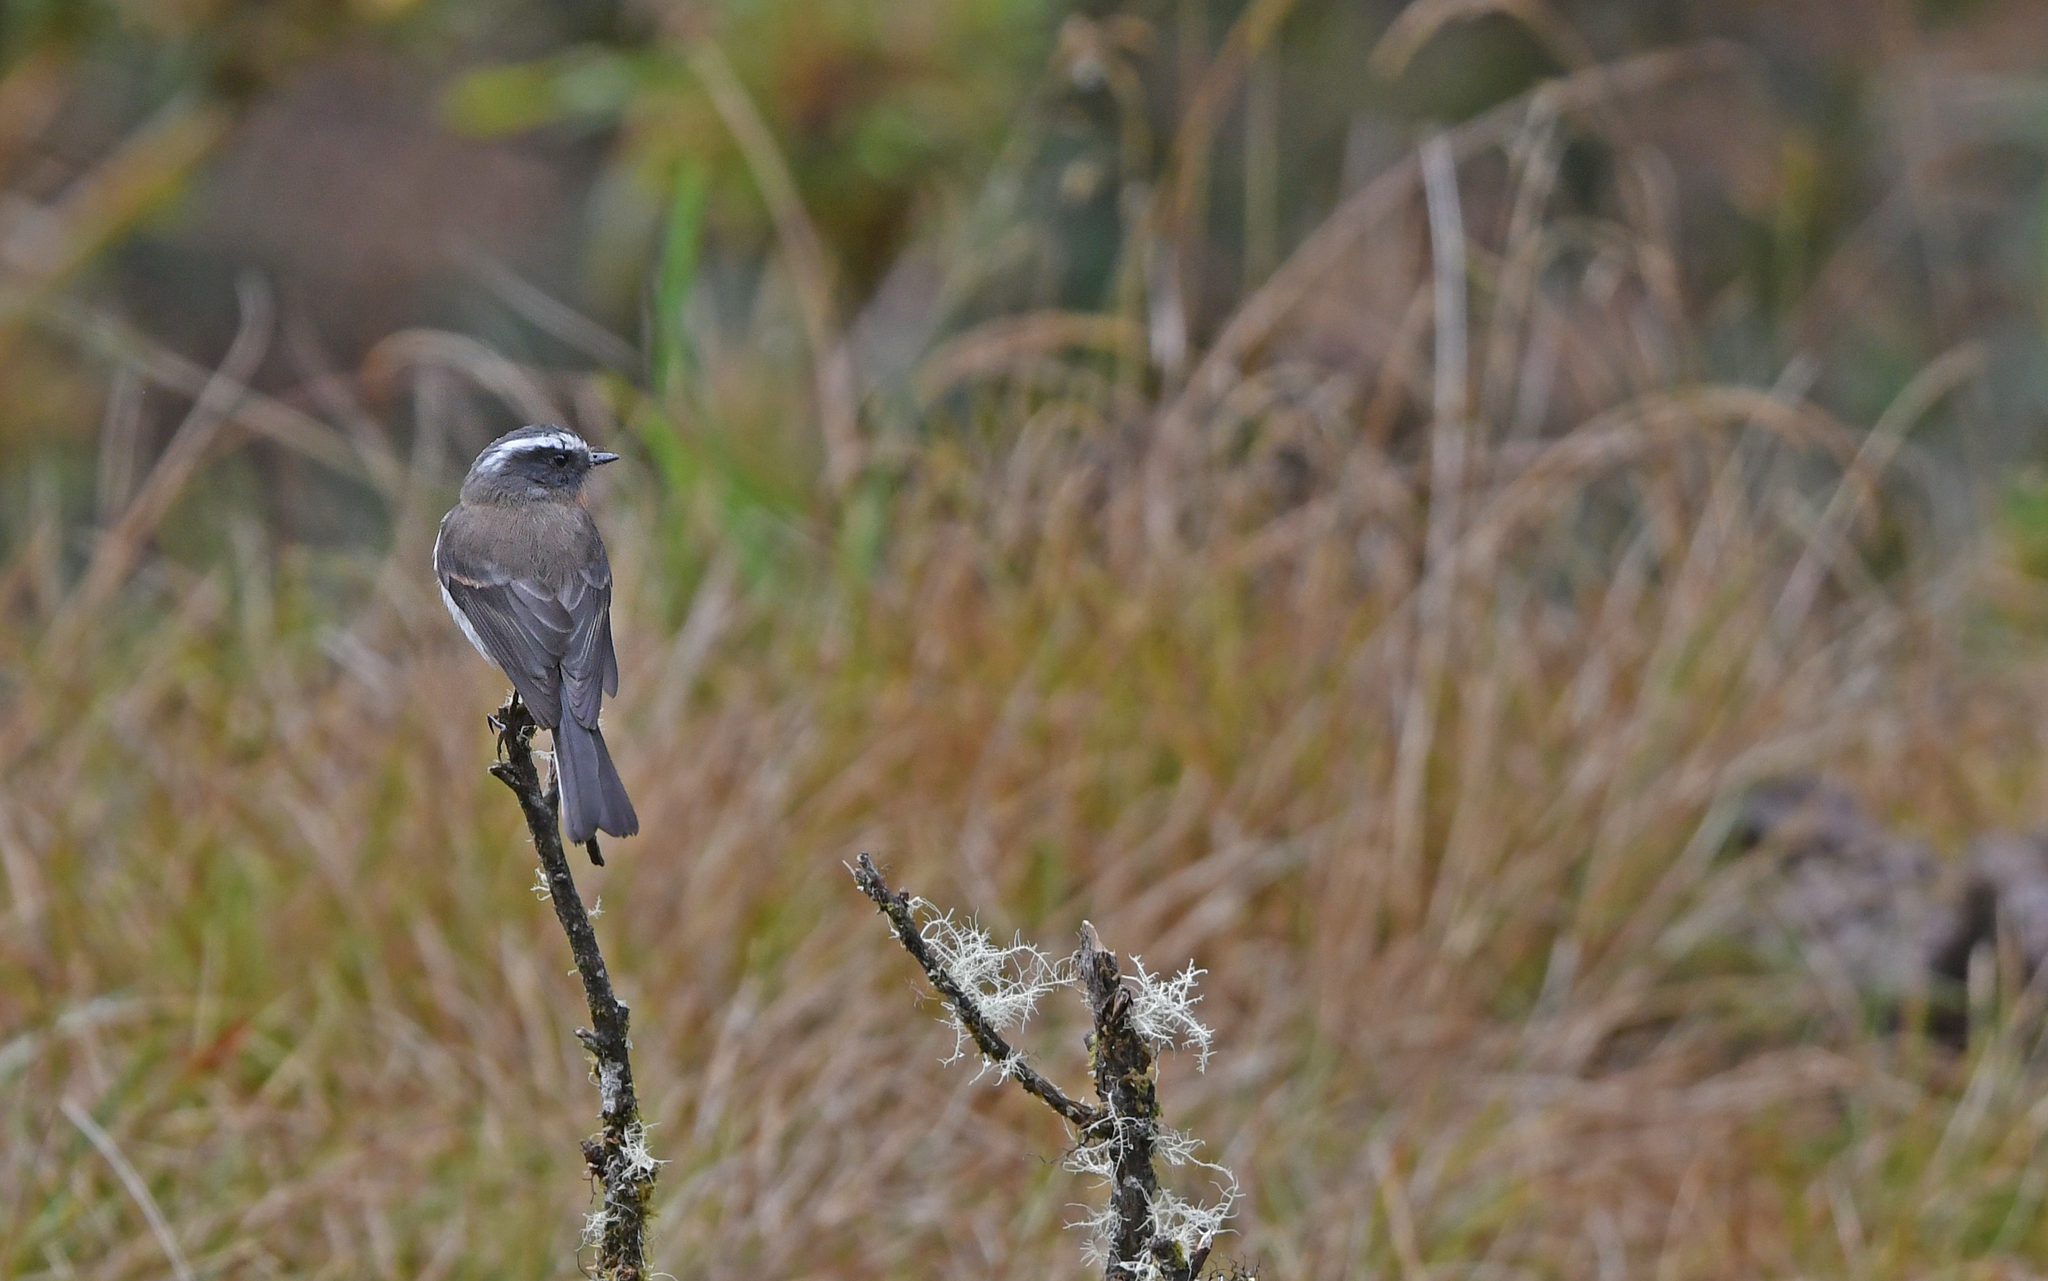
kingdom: Animalia
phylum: Chordata
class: Aves
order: Passeriformes
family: Tyrannidae
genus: Ochthoeca
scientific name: Ochthoeca rufipectoralis
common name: Rufous-breasted chat-tyrant
